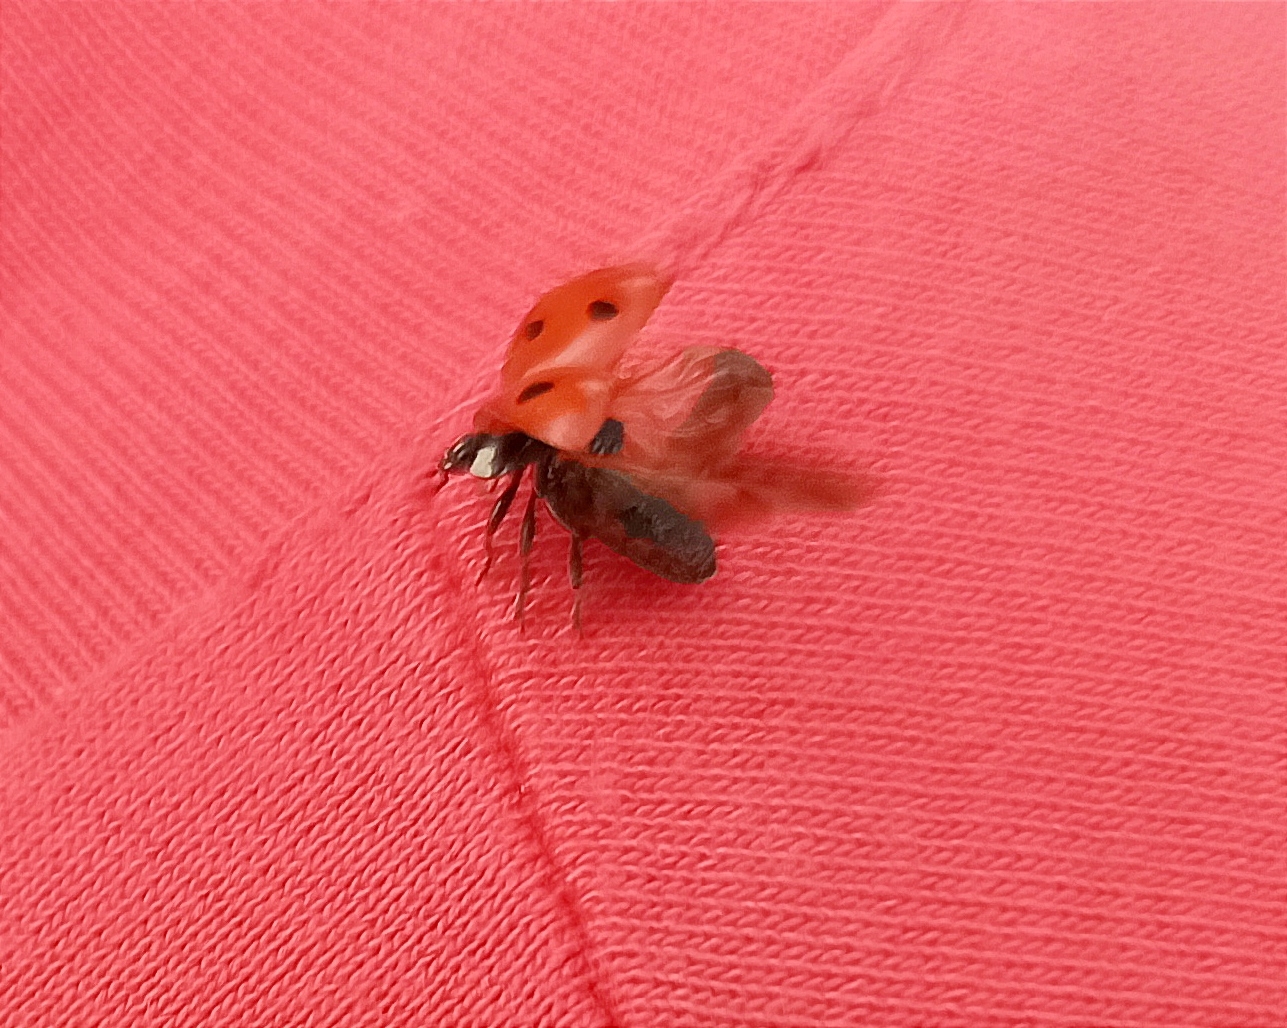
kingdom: Animalia
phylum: Arthropoda
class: Insecta
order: Coleoptera
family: Coccinellidae
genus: Coccinella
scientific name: Coccinella septempunctata
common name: Sevenspotted lady beetle
